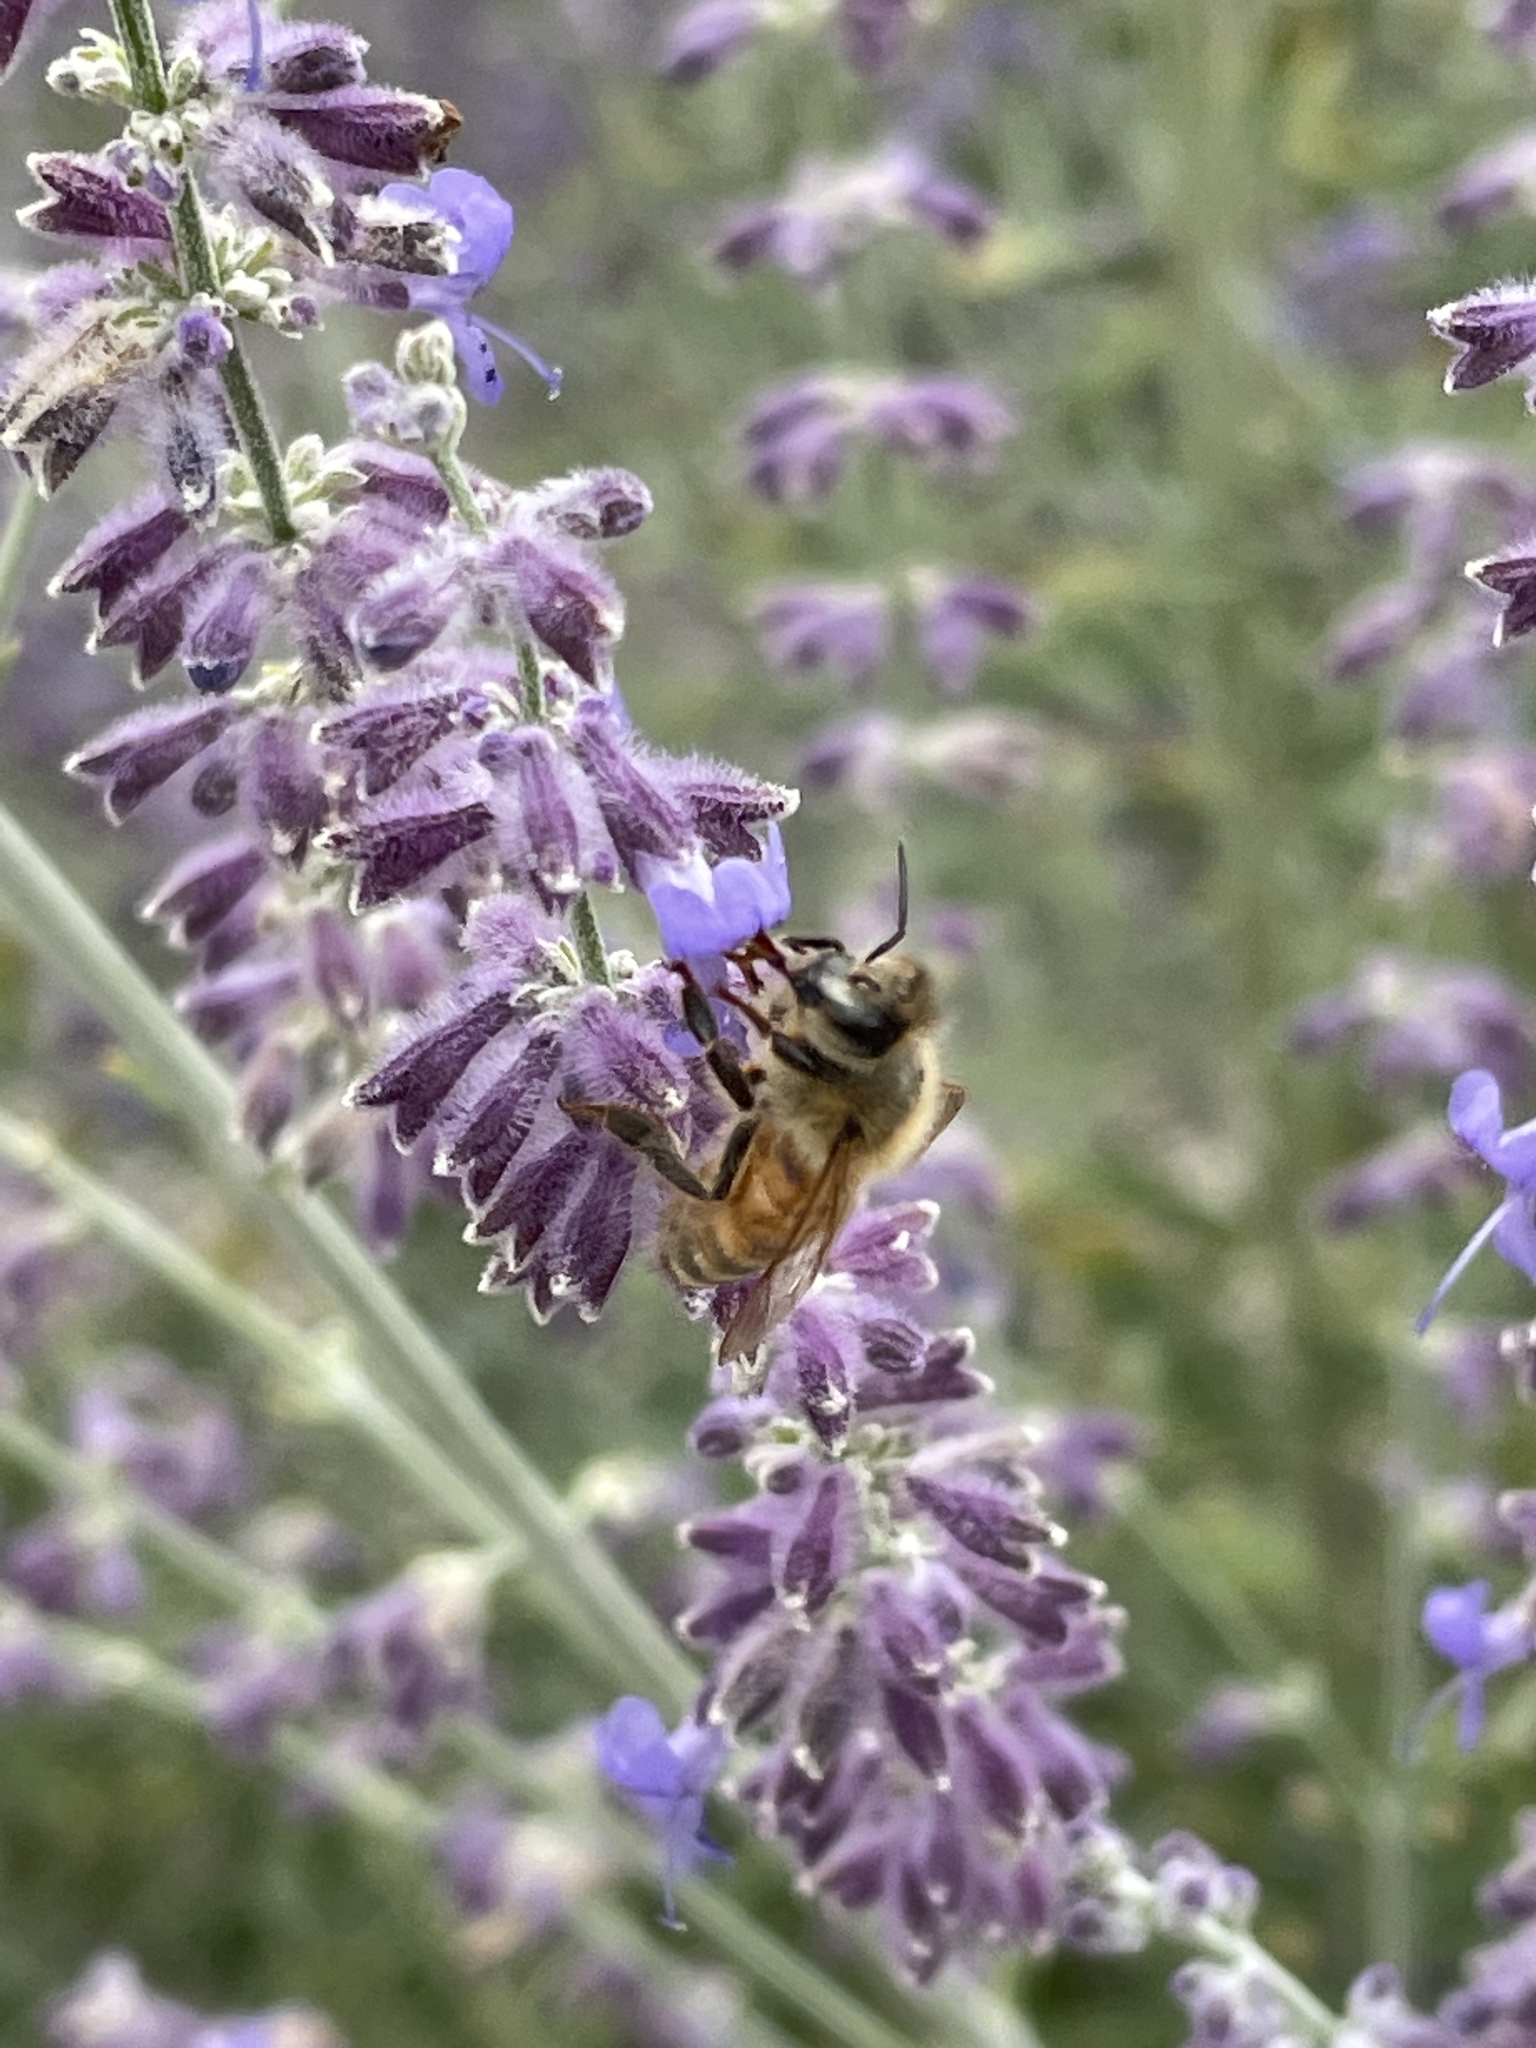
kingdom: Animalia
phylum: Arthropoda
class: Insecta
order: Hymenoptera
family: Apidae
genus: Apis
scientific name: Apis mellifera
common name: Honey bee
